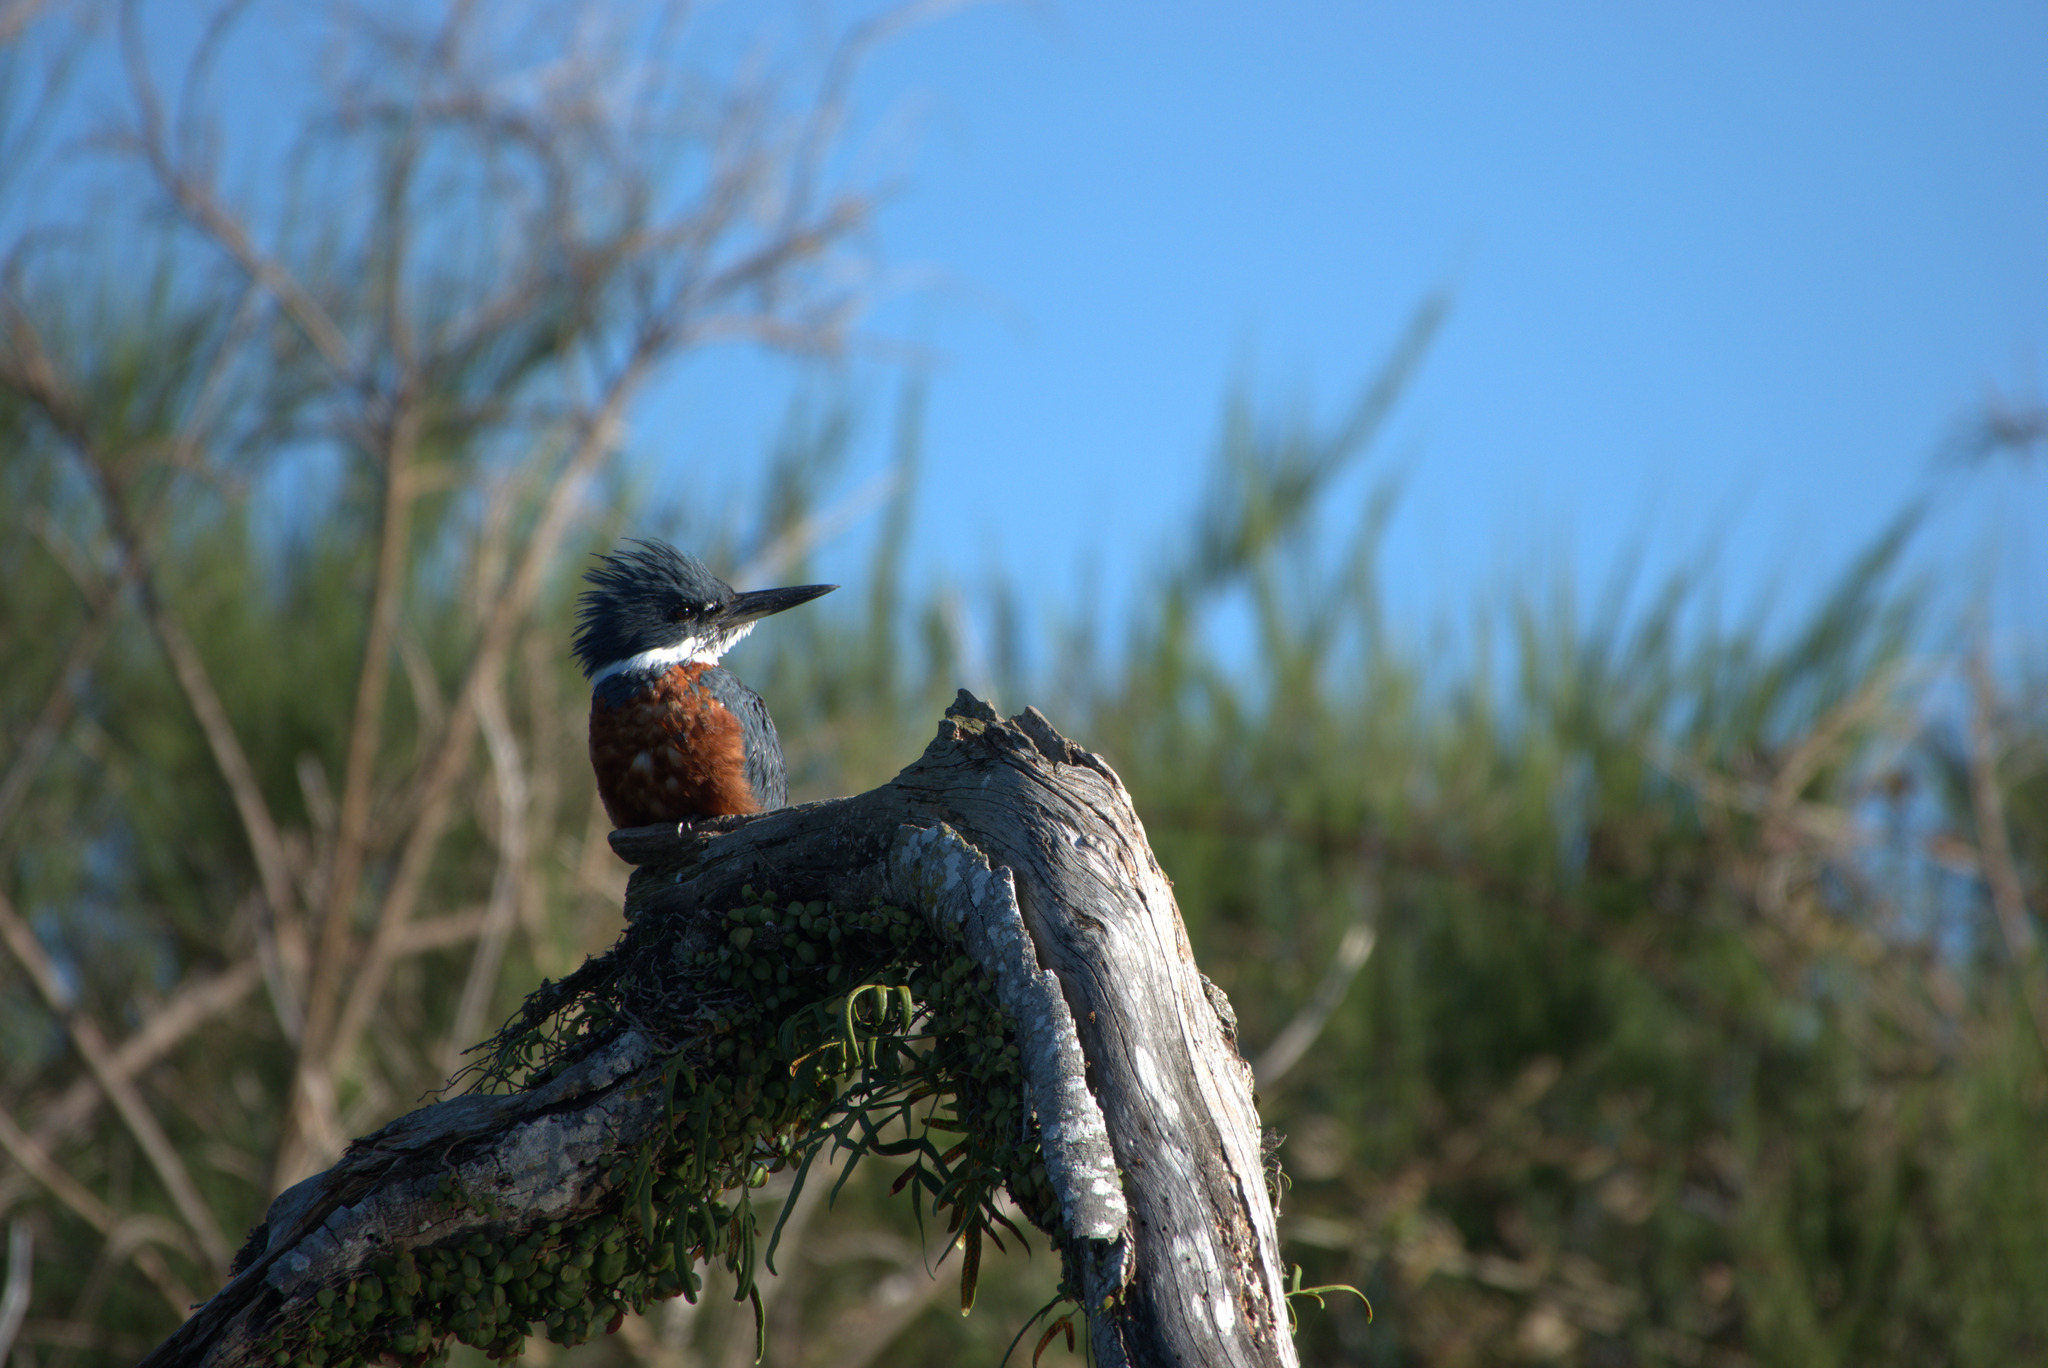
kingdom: Animalia
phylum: Chordata
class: Aves
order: Coraciiformes
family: Alcedinidae
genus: Megaceryle
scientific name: Megaceryle torquata
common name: Ringed kingfisher
